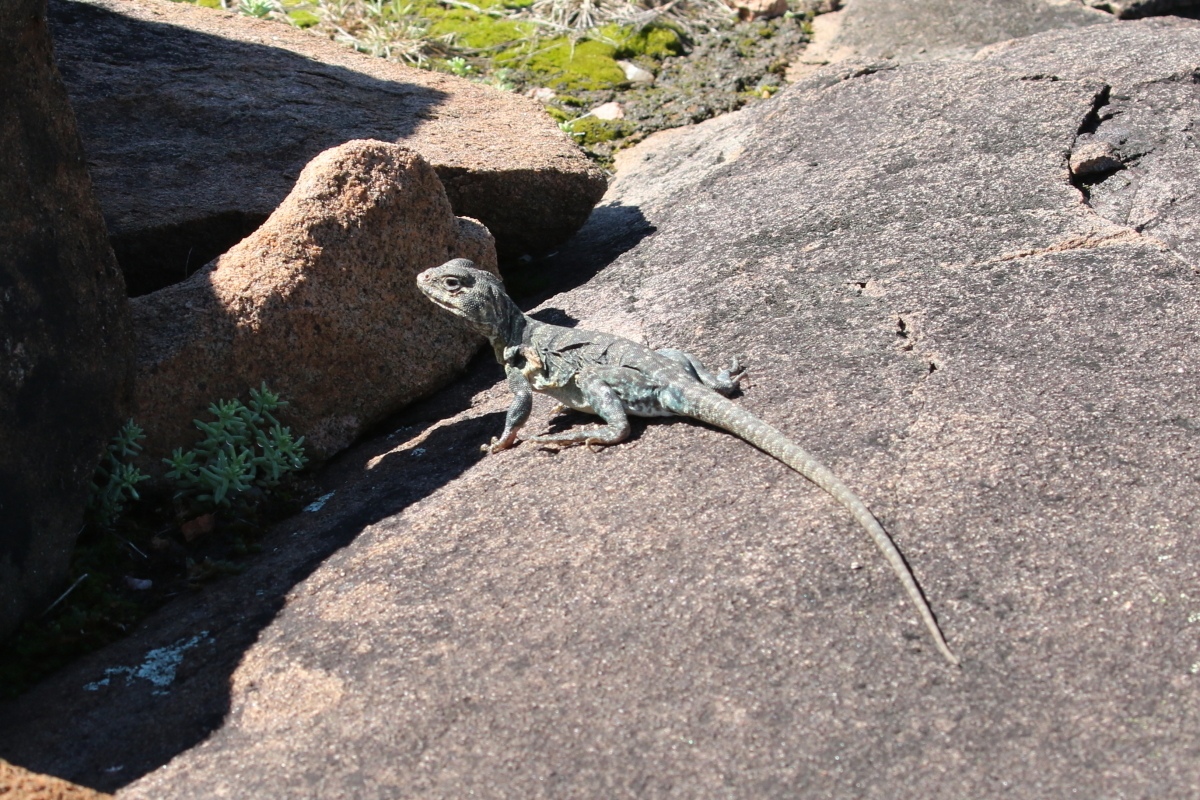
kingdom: Animalia
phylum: Chordata
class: Squamata
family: Crotaphytidae
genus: Crotaphytus
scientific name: Crotaphytus collaris
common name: Collared lizard
